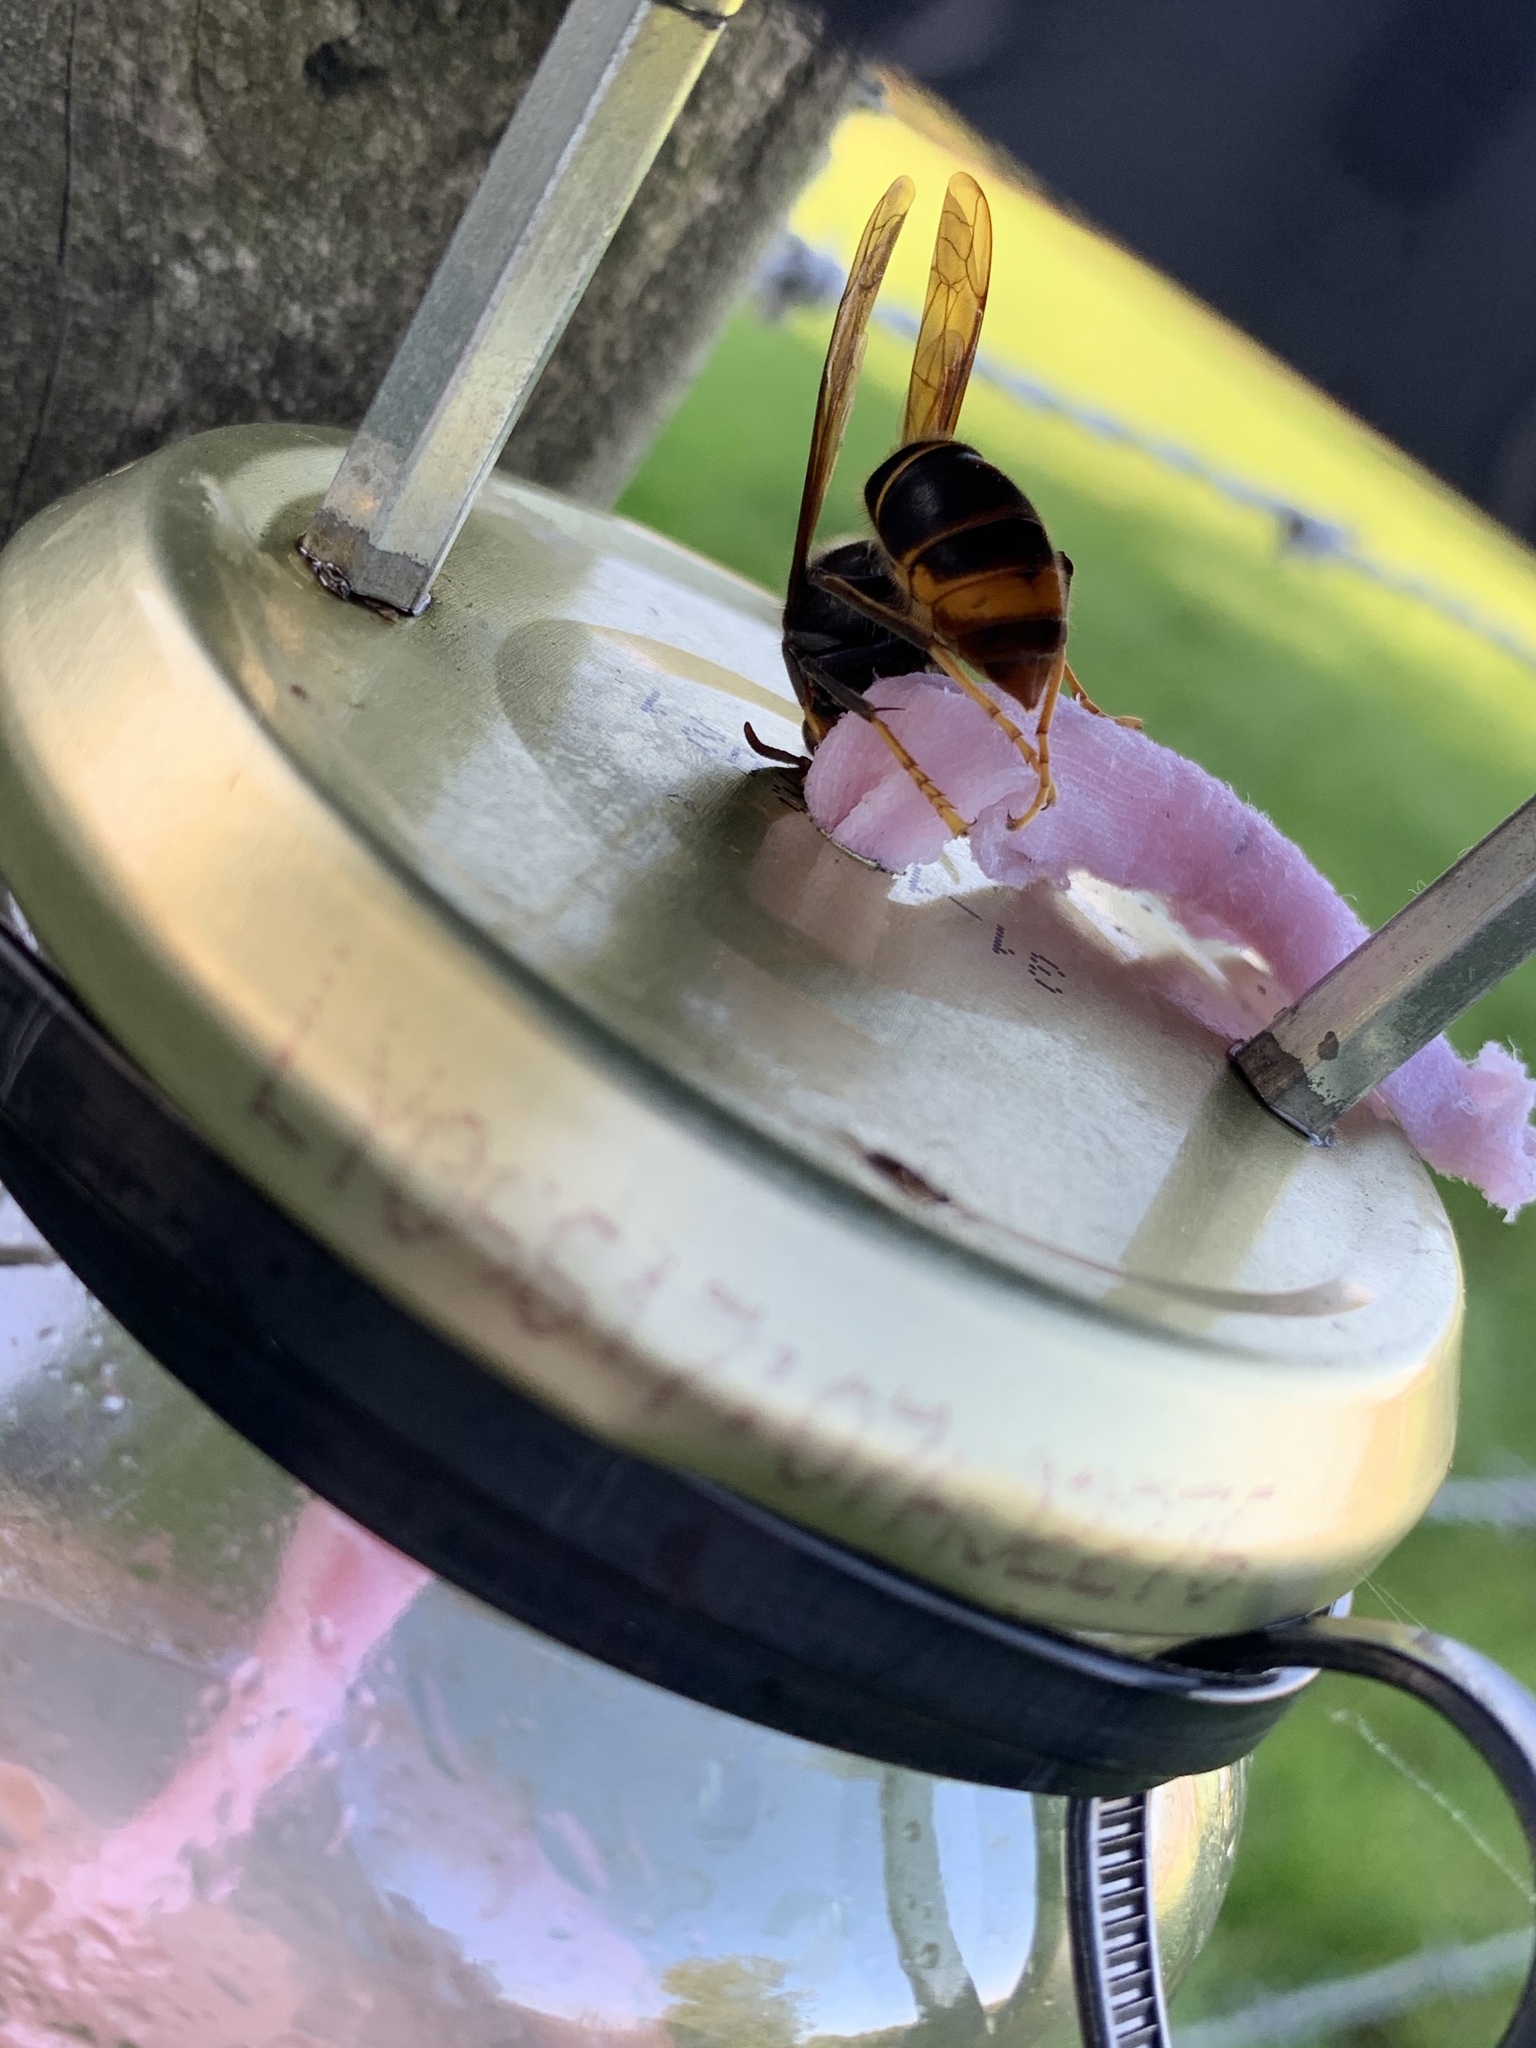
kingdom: Animalia
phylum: Arthropoda
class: Insecta
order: Hymenoptera
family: Vespidae
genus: Vespa
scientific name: Vespa velutina
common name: Asian hornet
